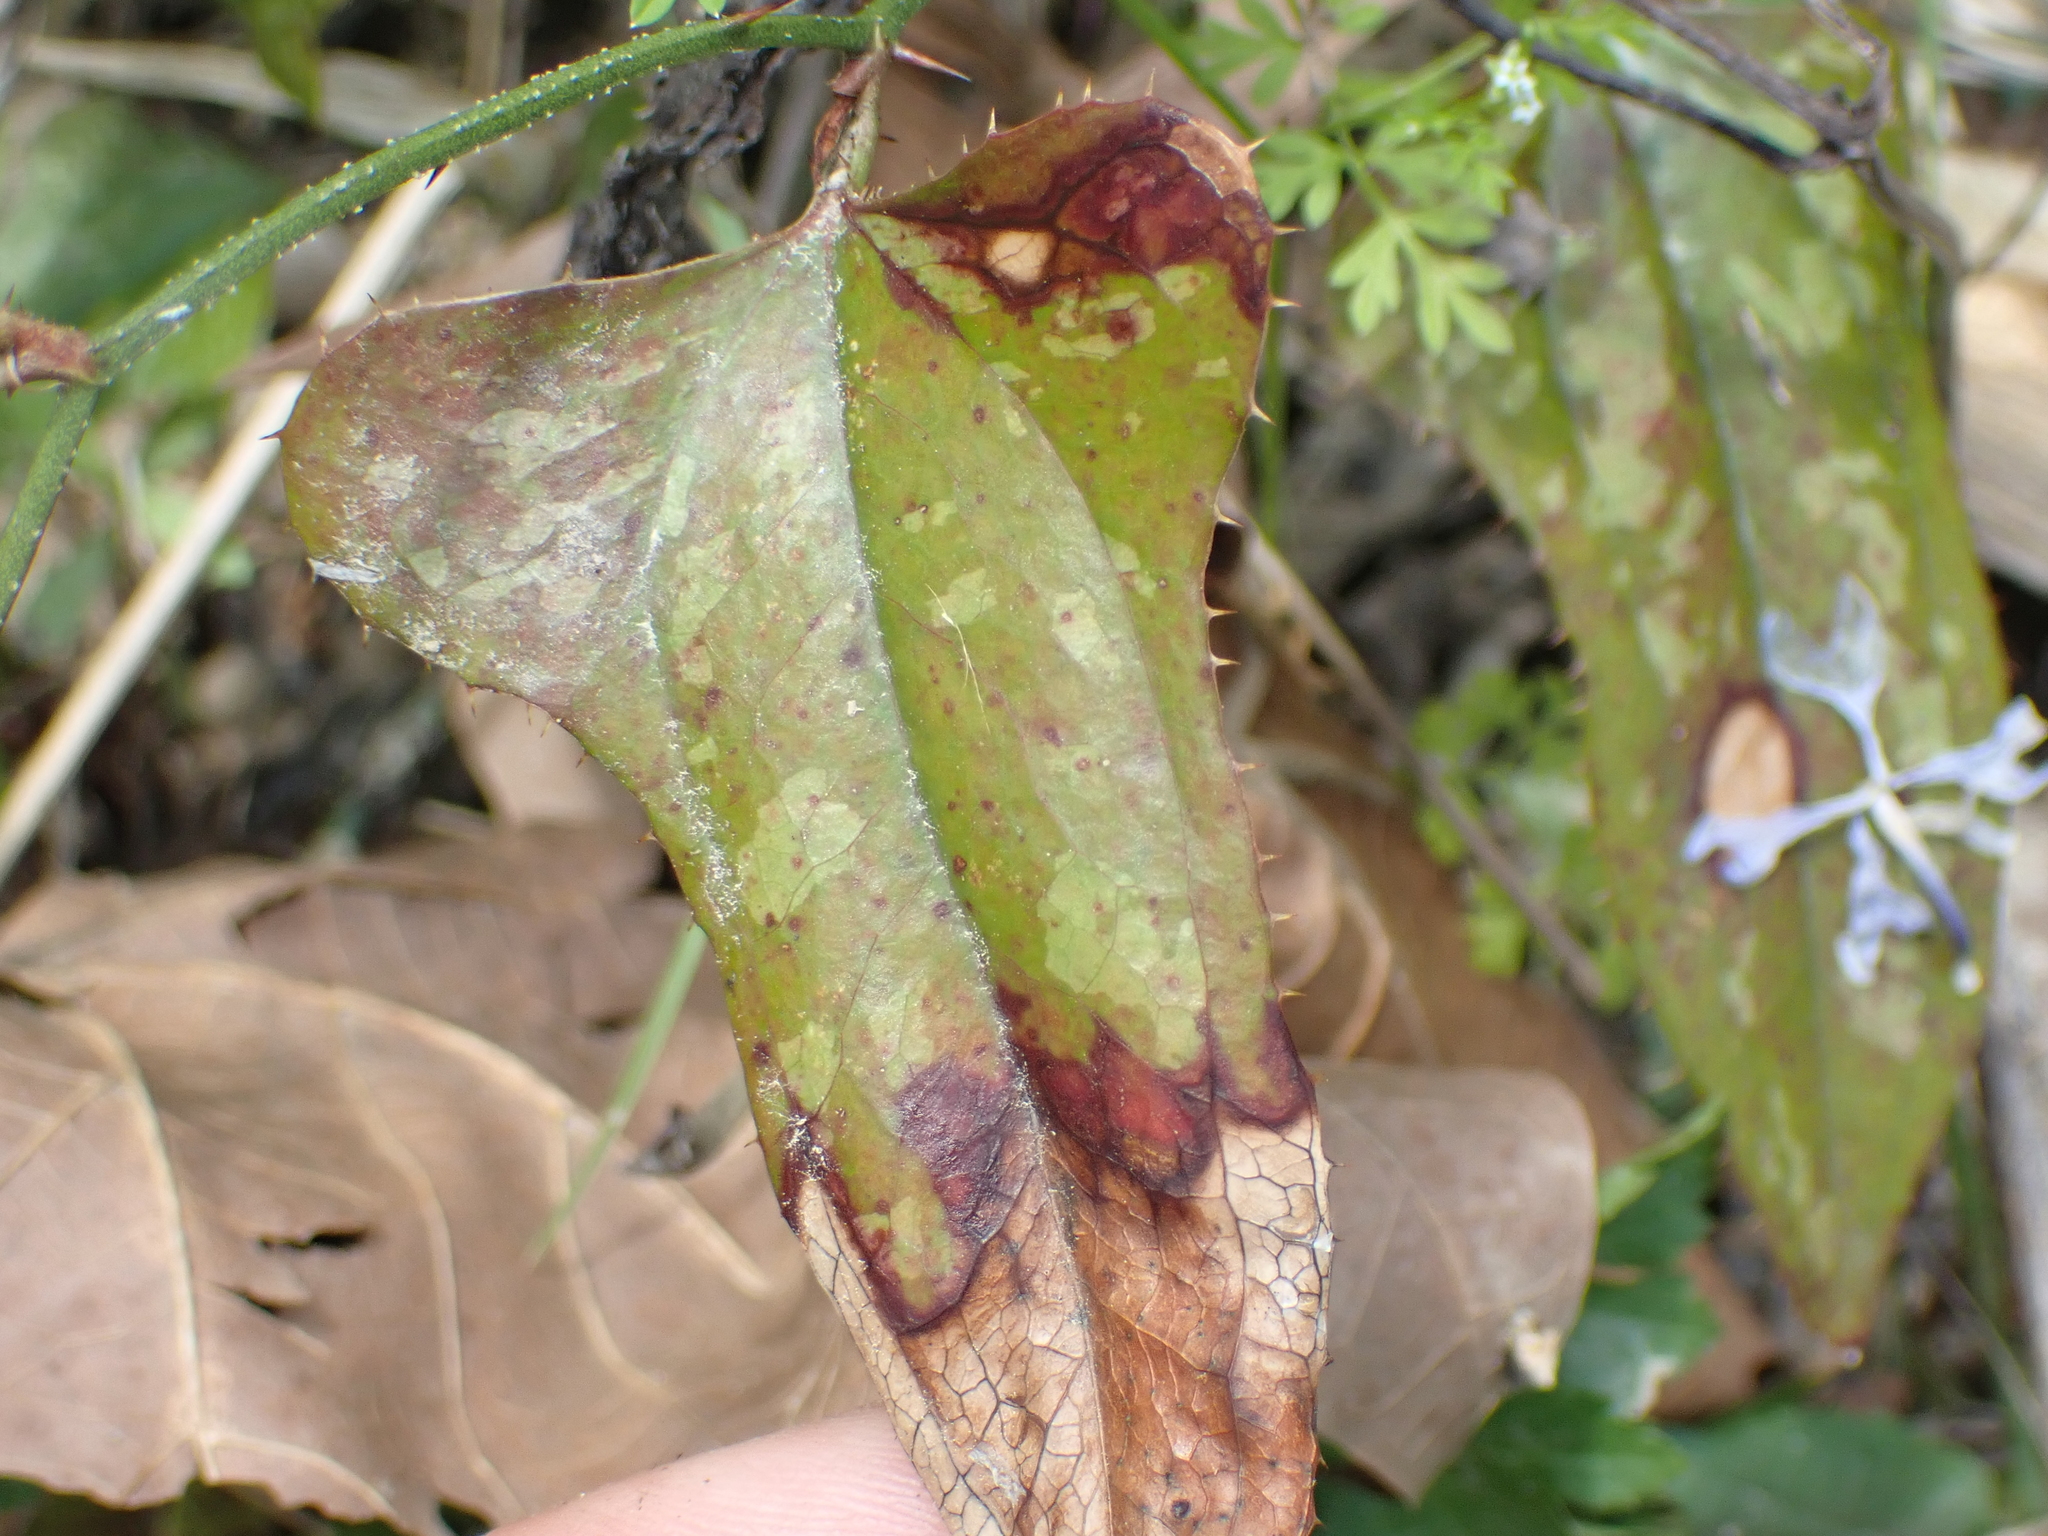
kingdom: Plantae
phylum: Tracheophyta
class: Liliopsida
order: Liliales
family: Smilacaceae
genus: Smilax
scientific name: Smilax bona-nox
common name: Catbrier
